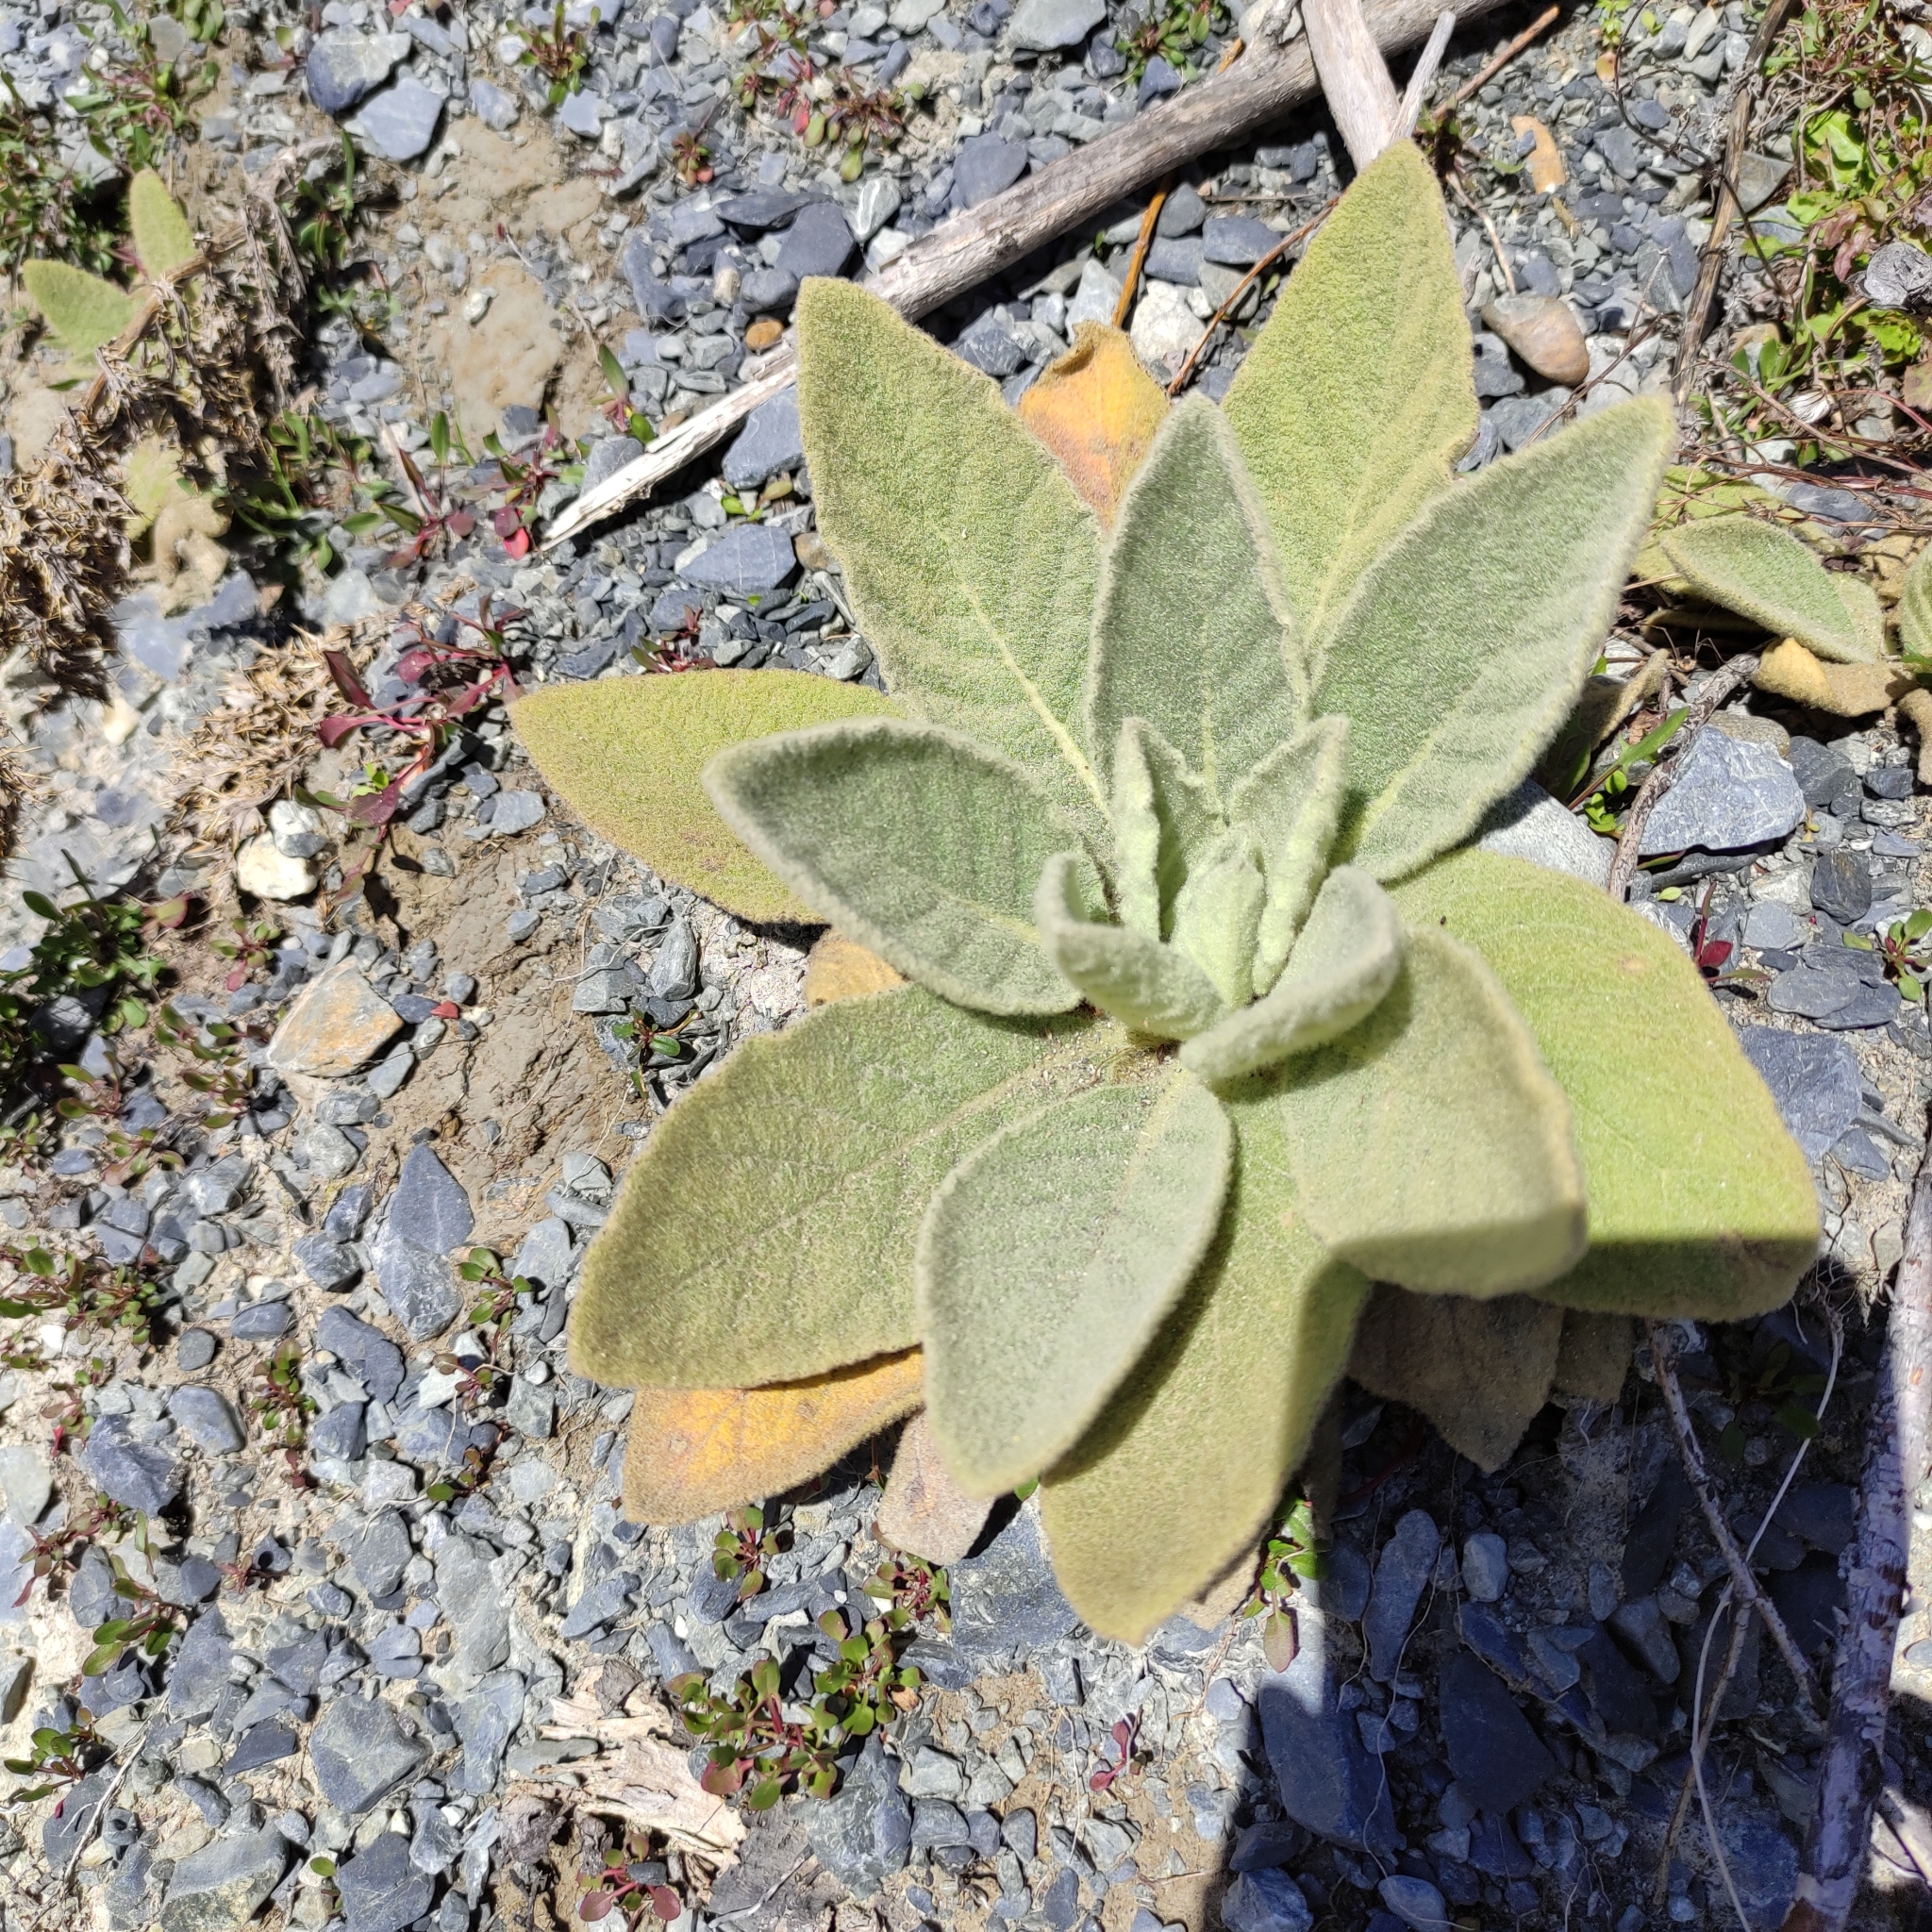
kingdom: Plantae
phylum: Tracheophyta
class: Magnoliopsida
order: Lamiales
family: Scrophulariaceae
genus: Verbascum
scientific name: Verbascum thapsus
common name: Common mullein
